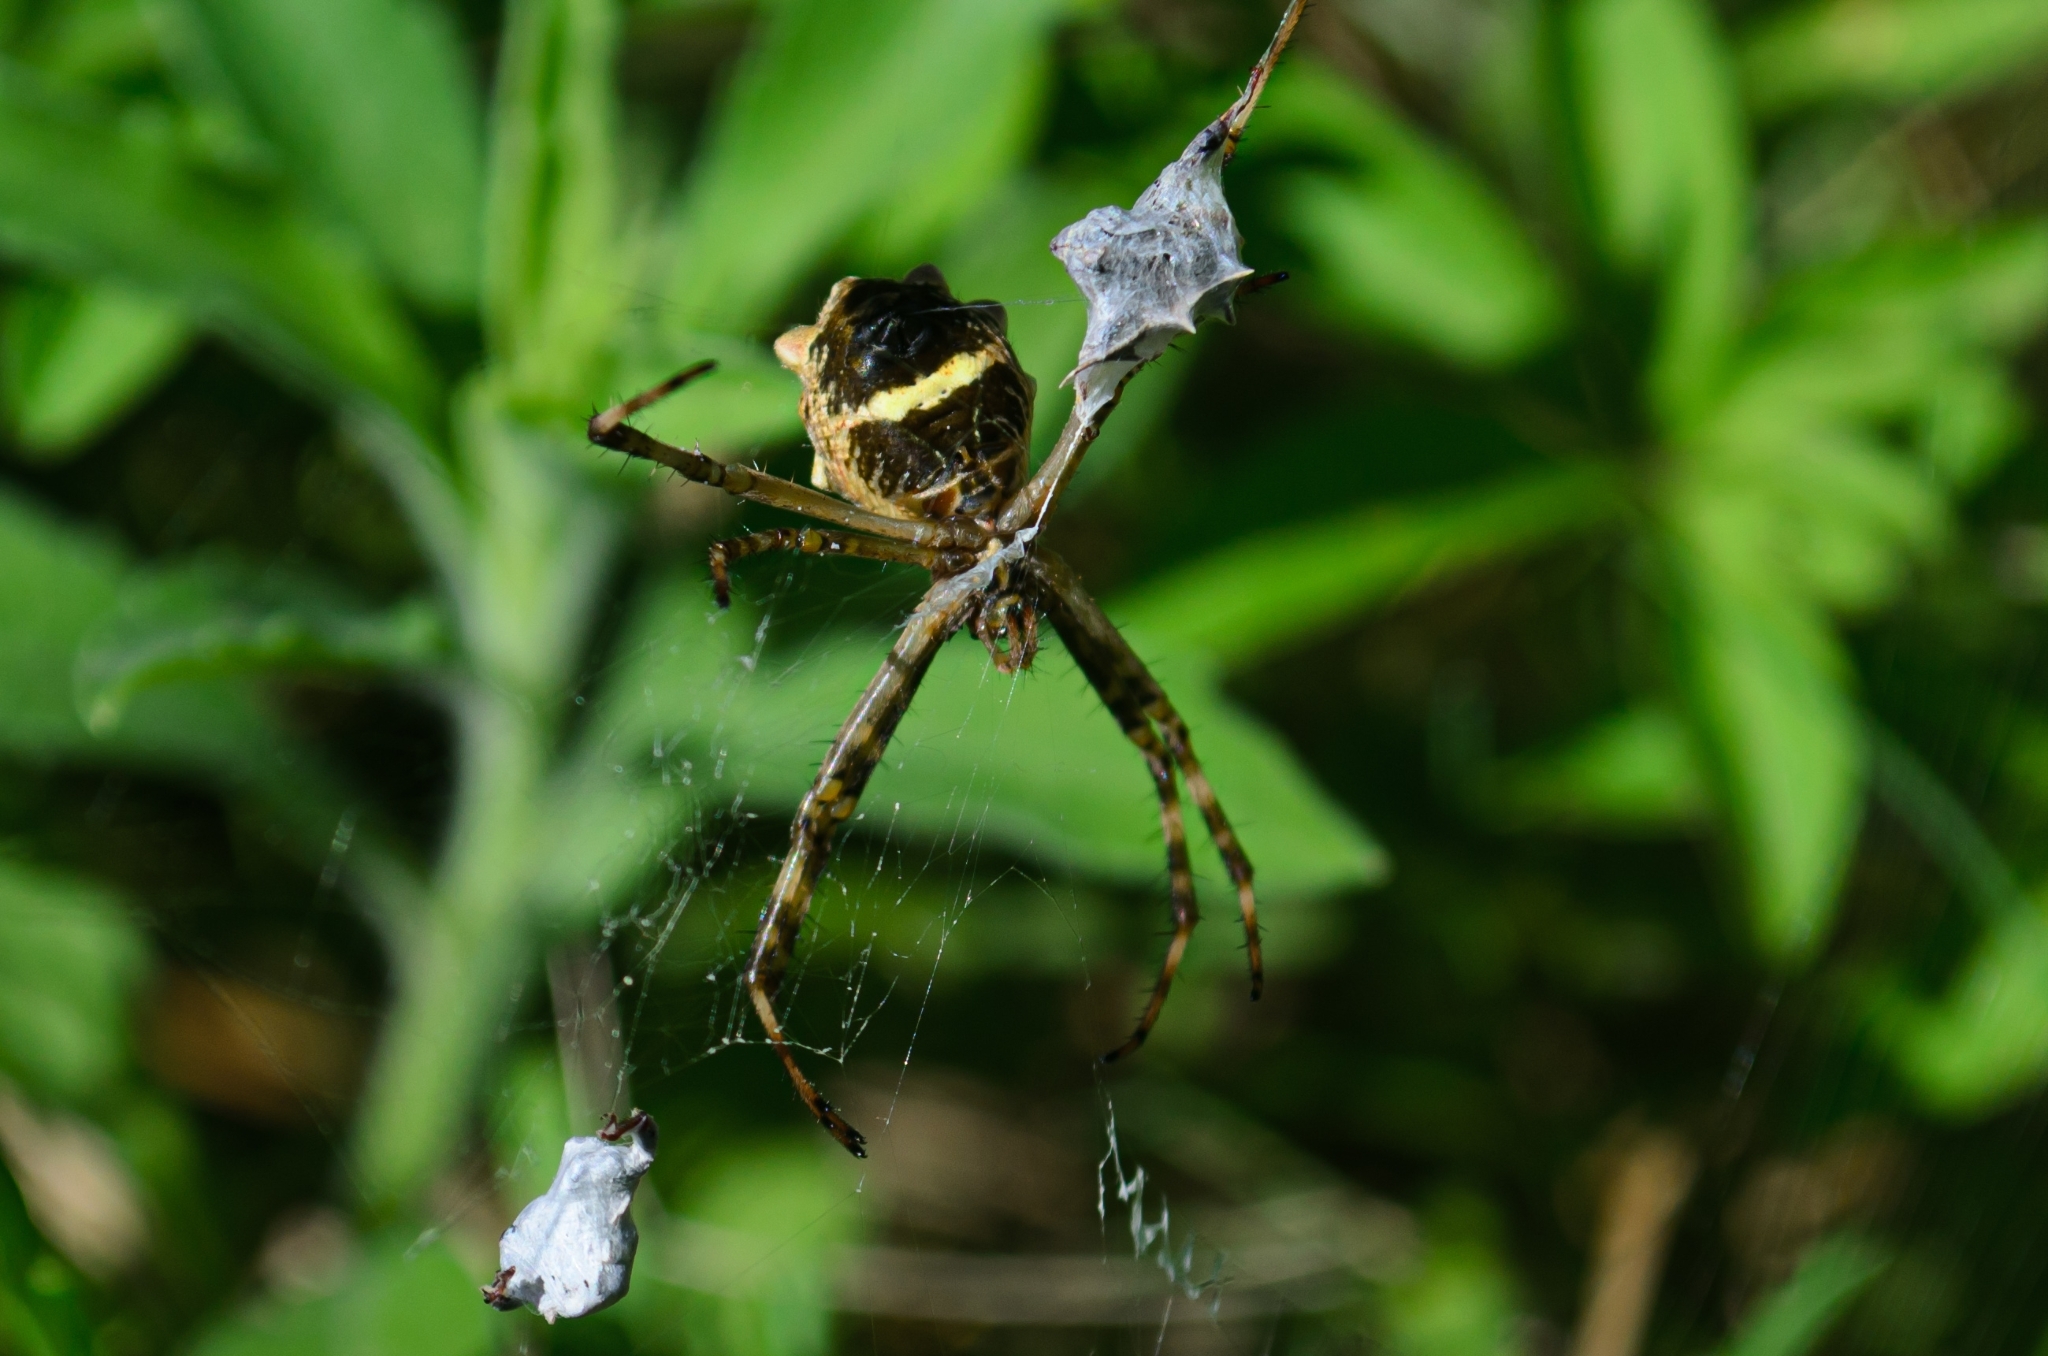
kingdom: Animalia
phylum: Arthropoda
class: Arachnida
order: Araneae
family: Araneidae
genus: Argiope
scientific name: Argiope argentata
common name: Orb weavers
